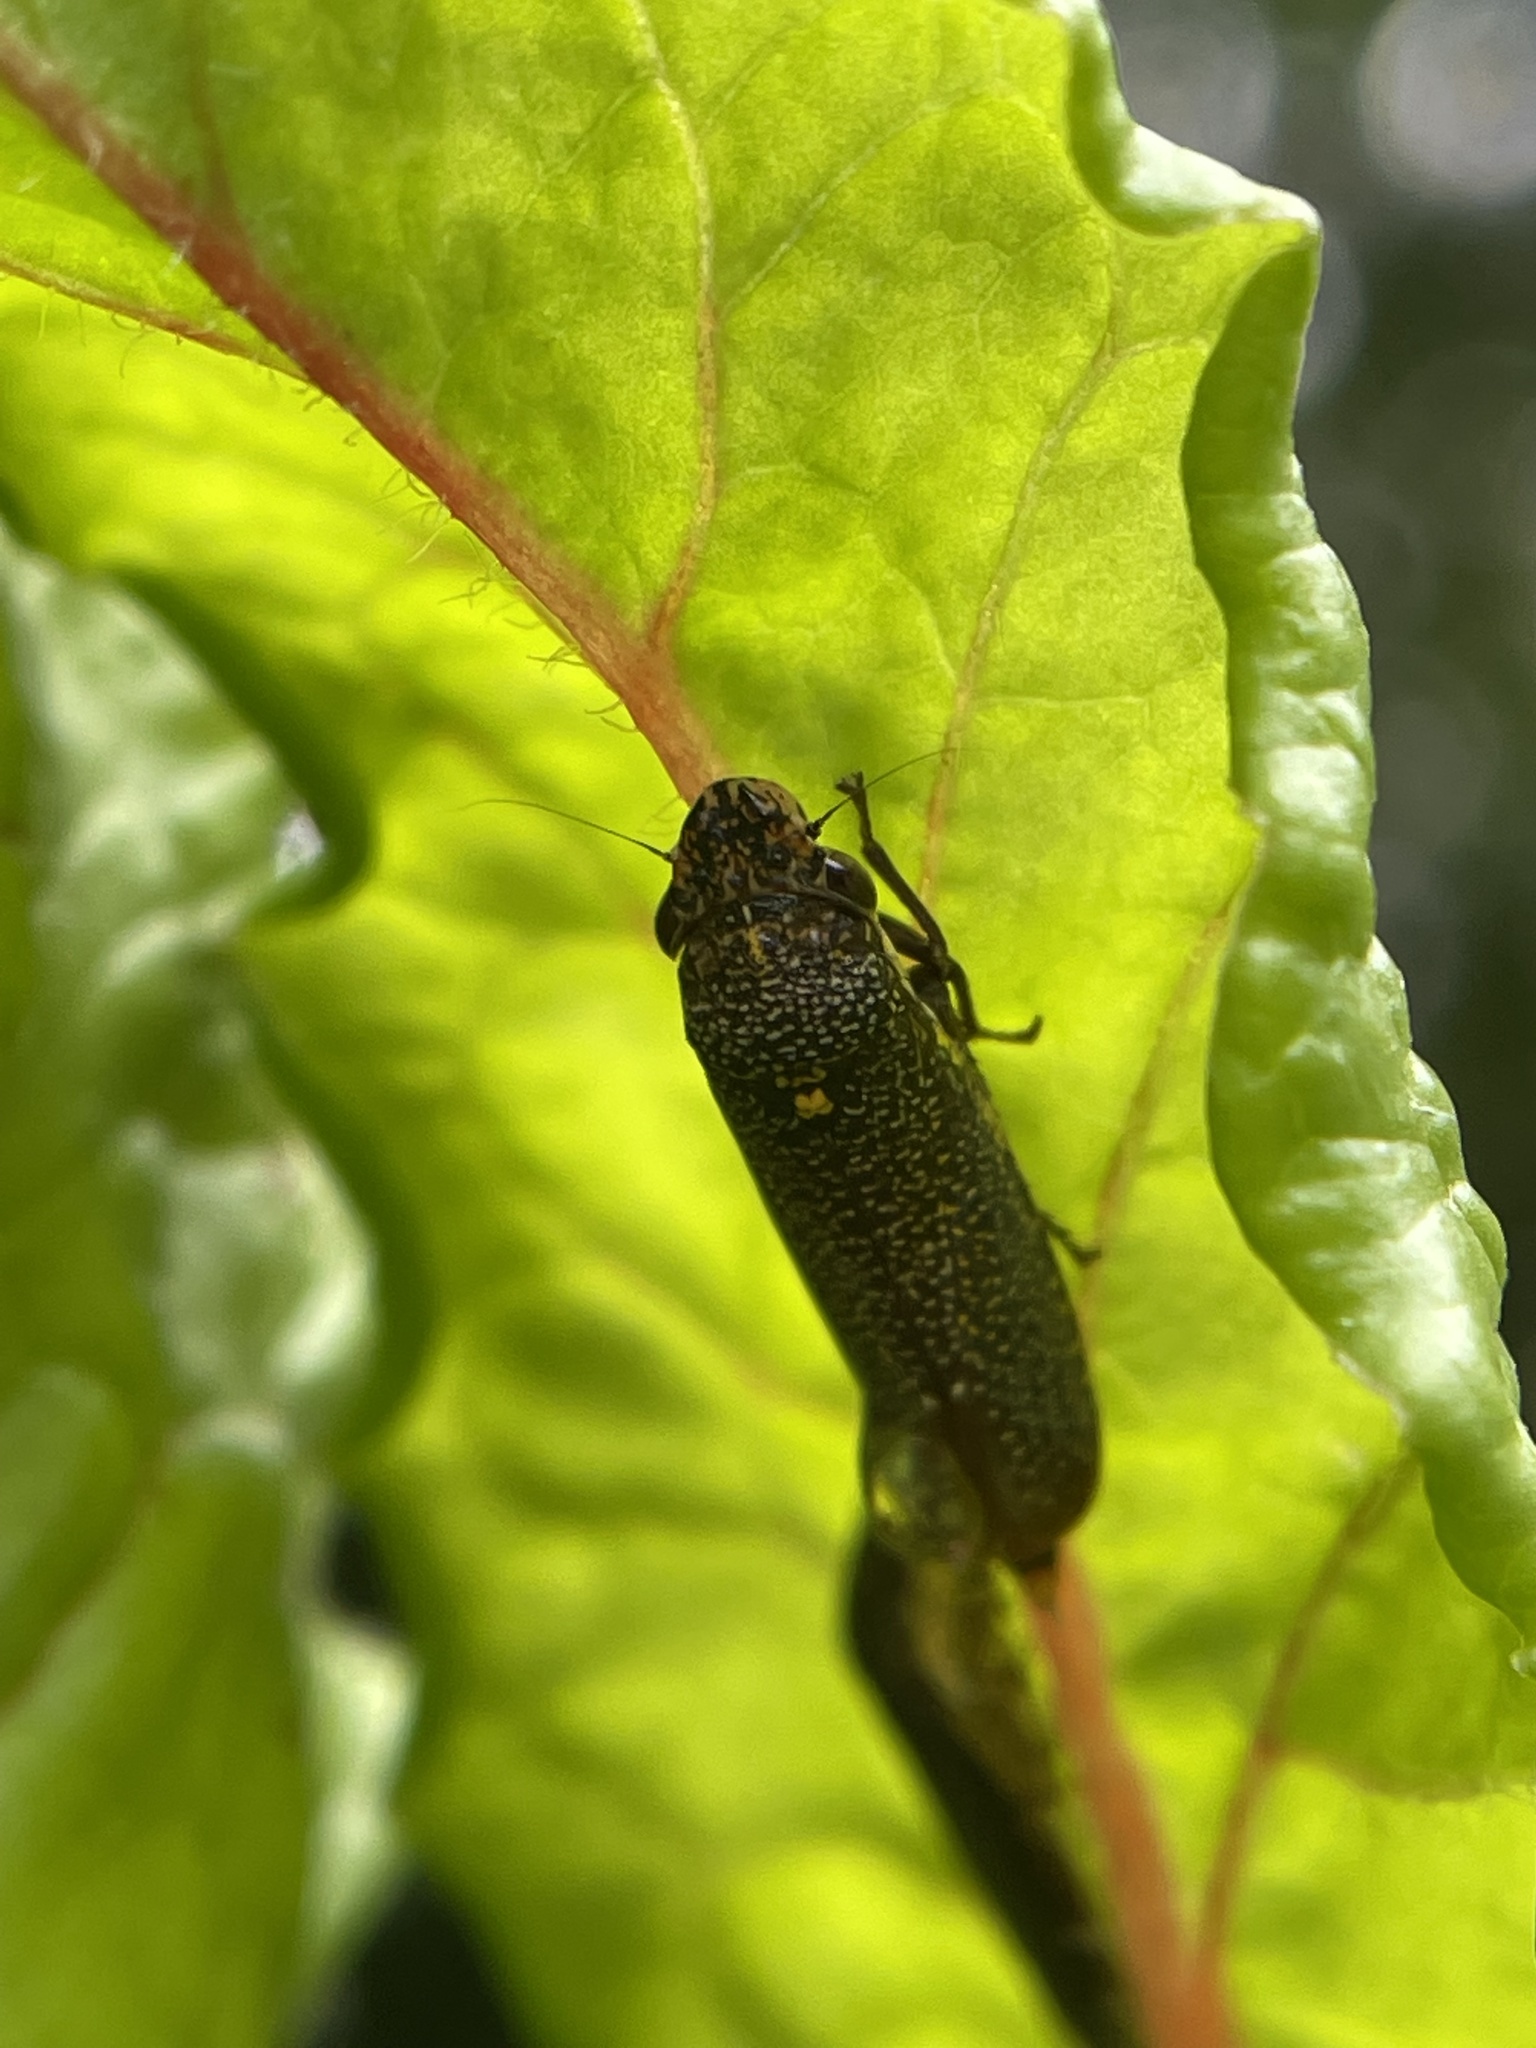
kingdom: Animalia
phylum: Arthropoda
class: Insecta
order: Hemiptera
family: Cicadellidae
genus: Paraulacizes
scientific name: Paraulacizes irrorata
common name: Speckled sharpshooter
